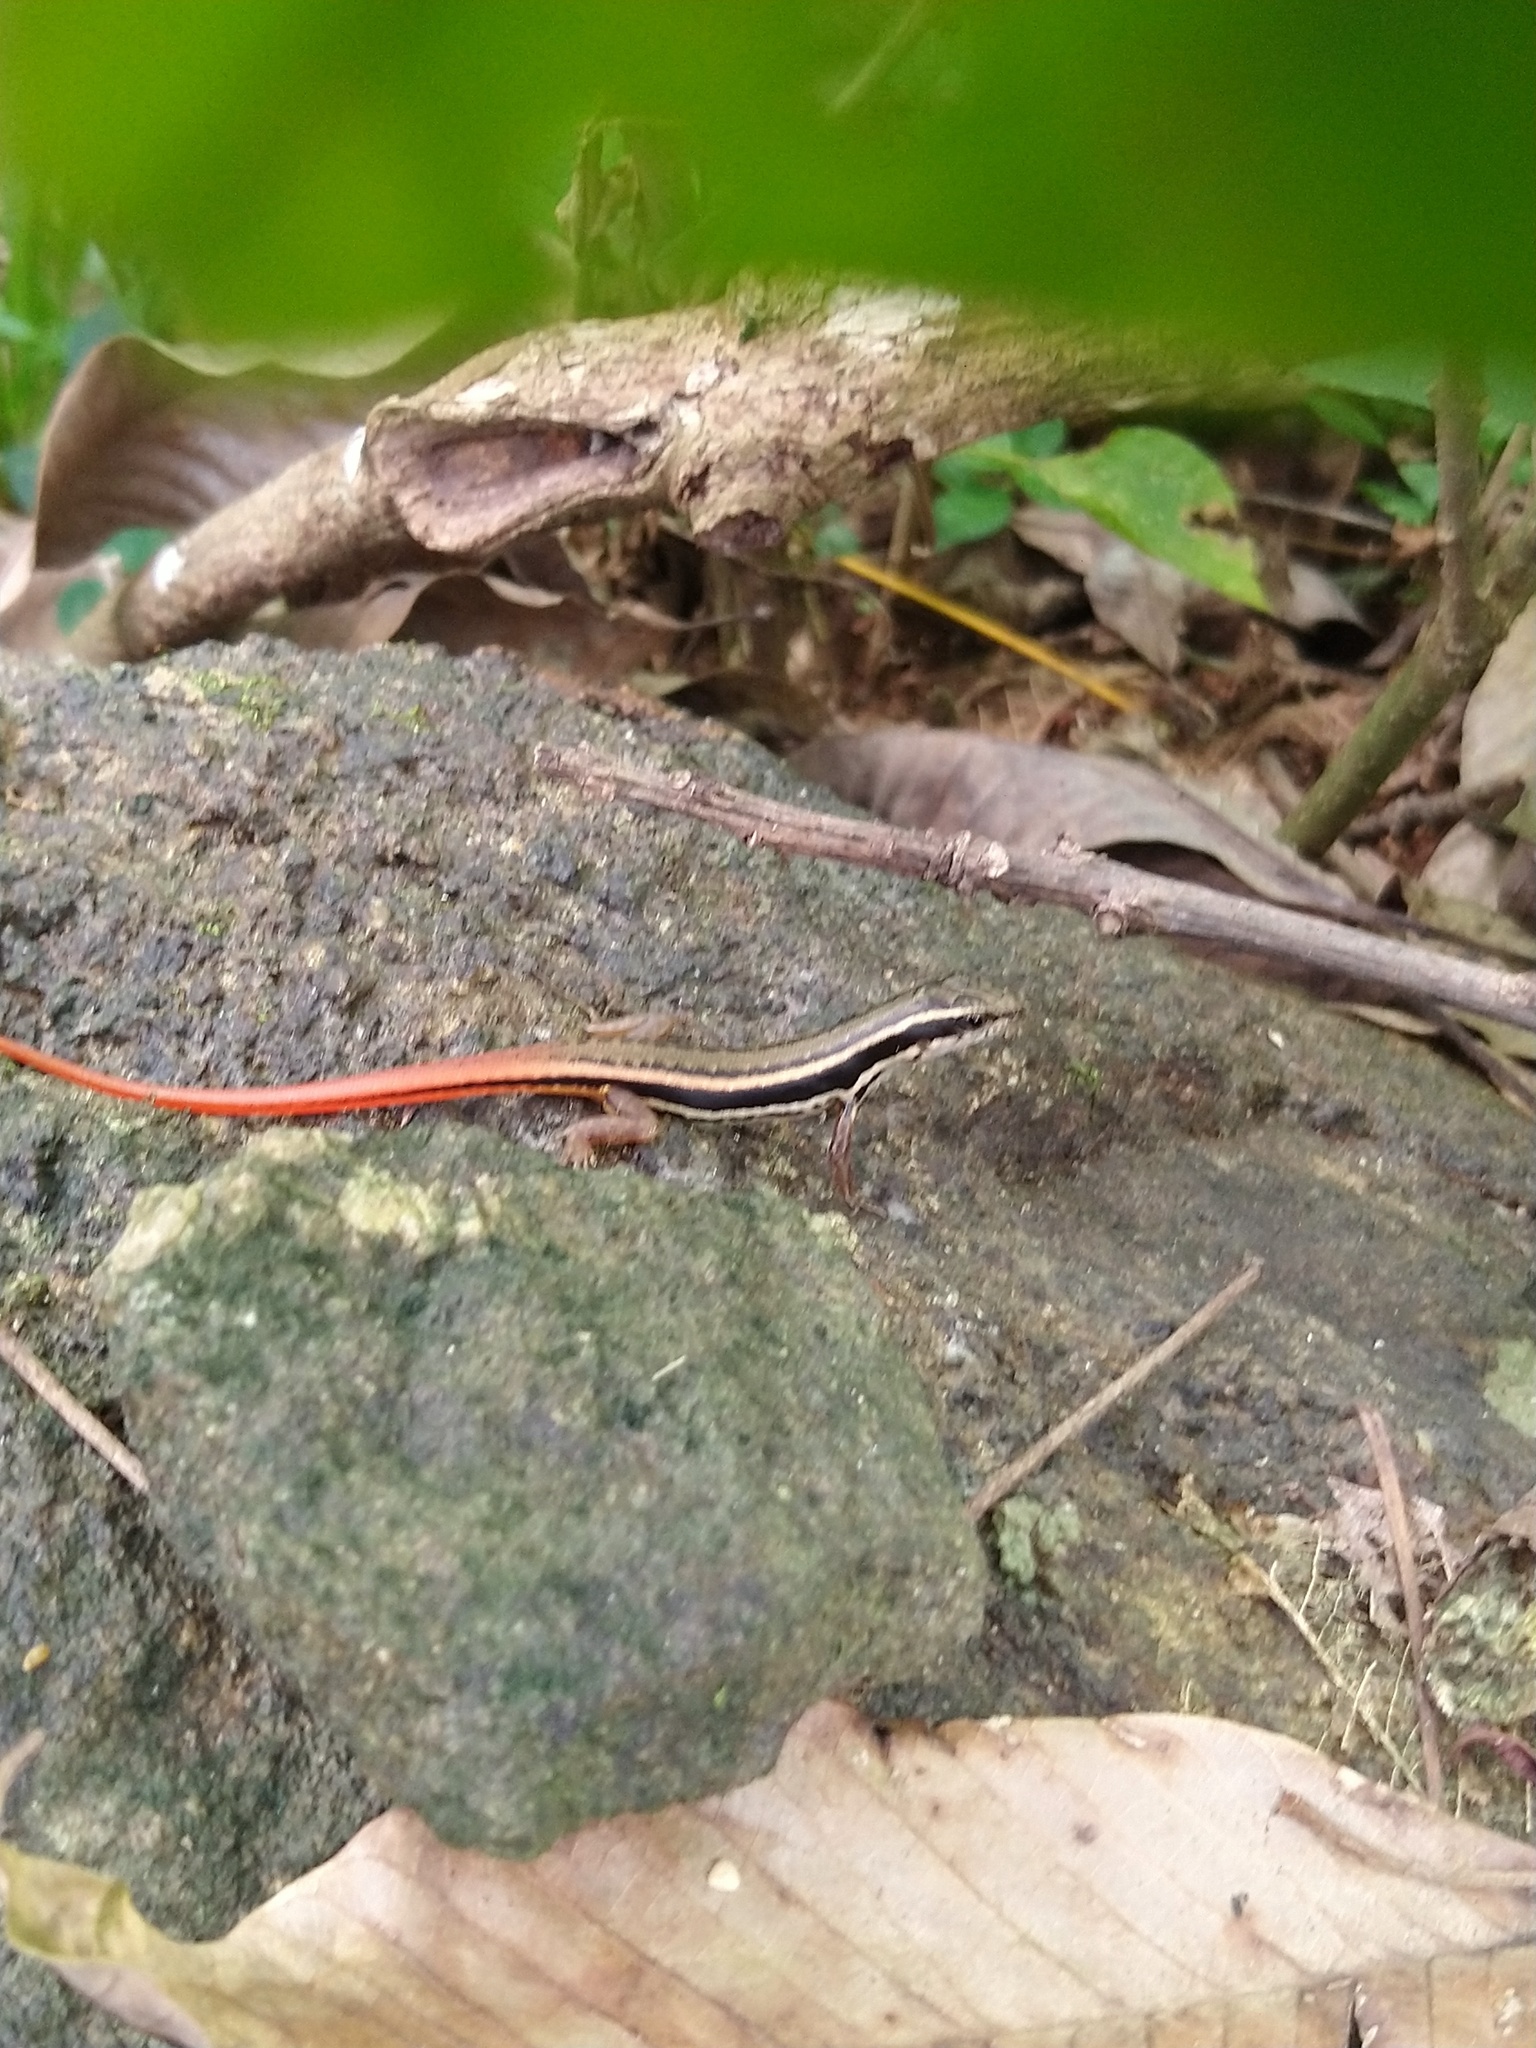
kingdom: Animalia
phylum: Chordata
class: Squamata
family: Scincidae
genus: Sphenomorphus
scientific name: Sphenomorphus dussumieri
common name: Dussumier's forest skink
